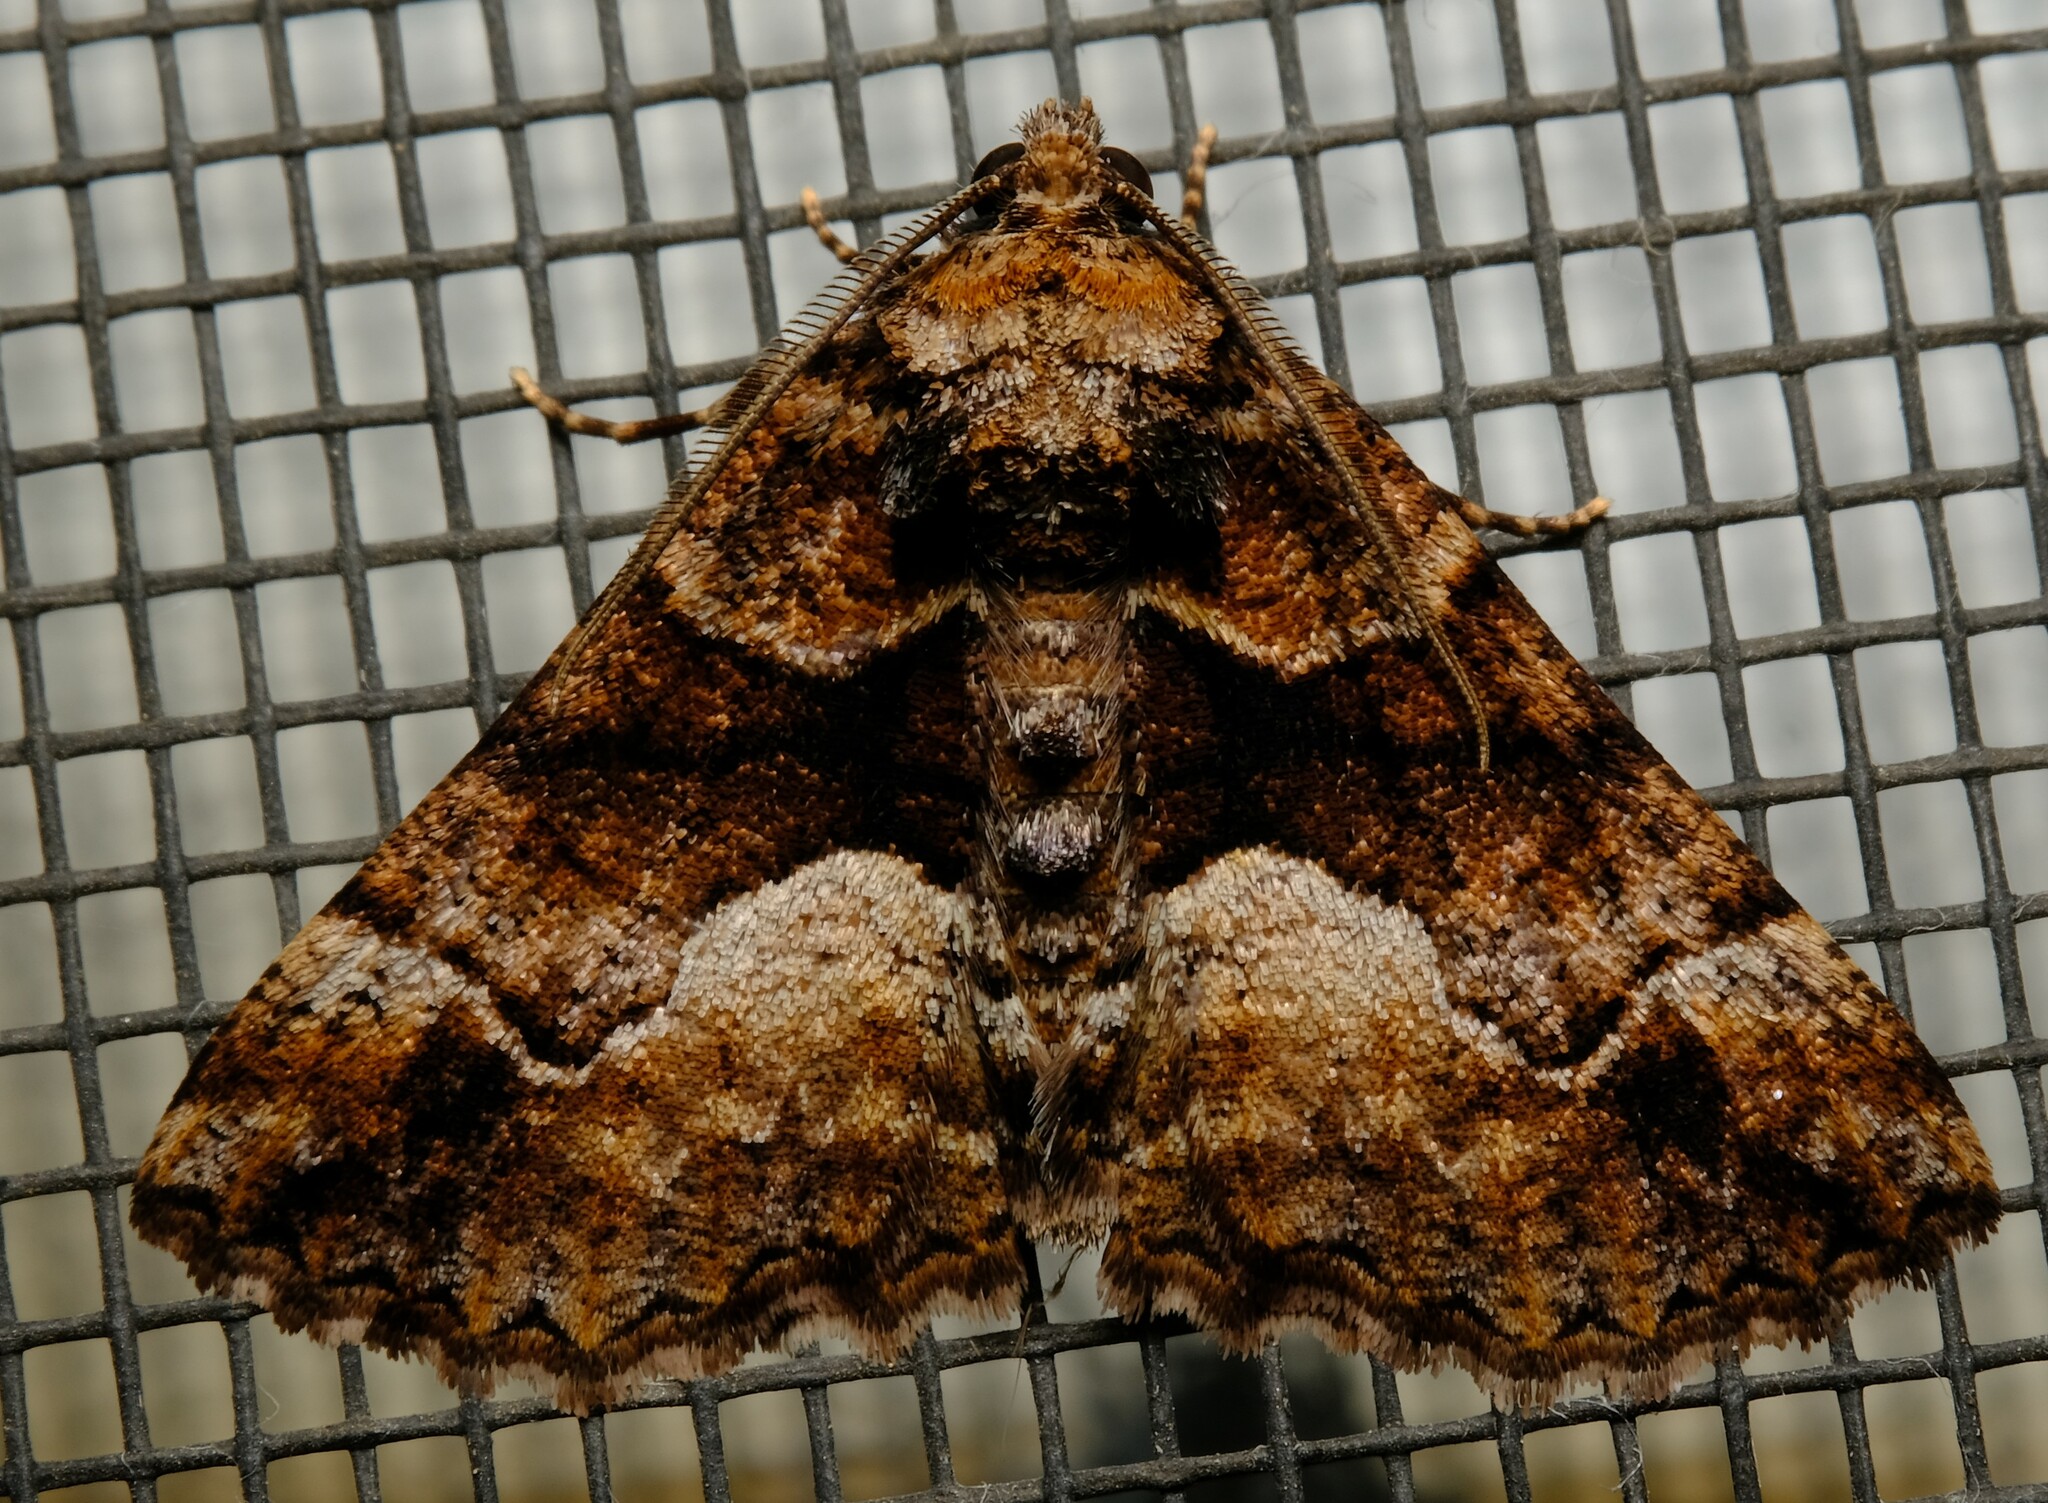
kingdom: Animalia
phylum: Arthropoda
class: Insecta
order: Lepidoptera
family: Geometridae
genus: Gastrina
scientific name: Gastrina cristaria
